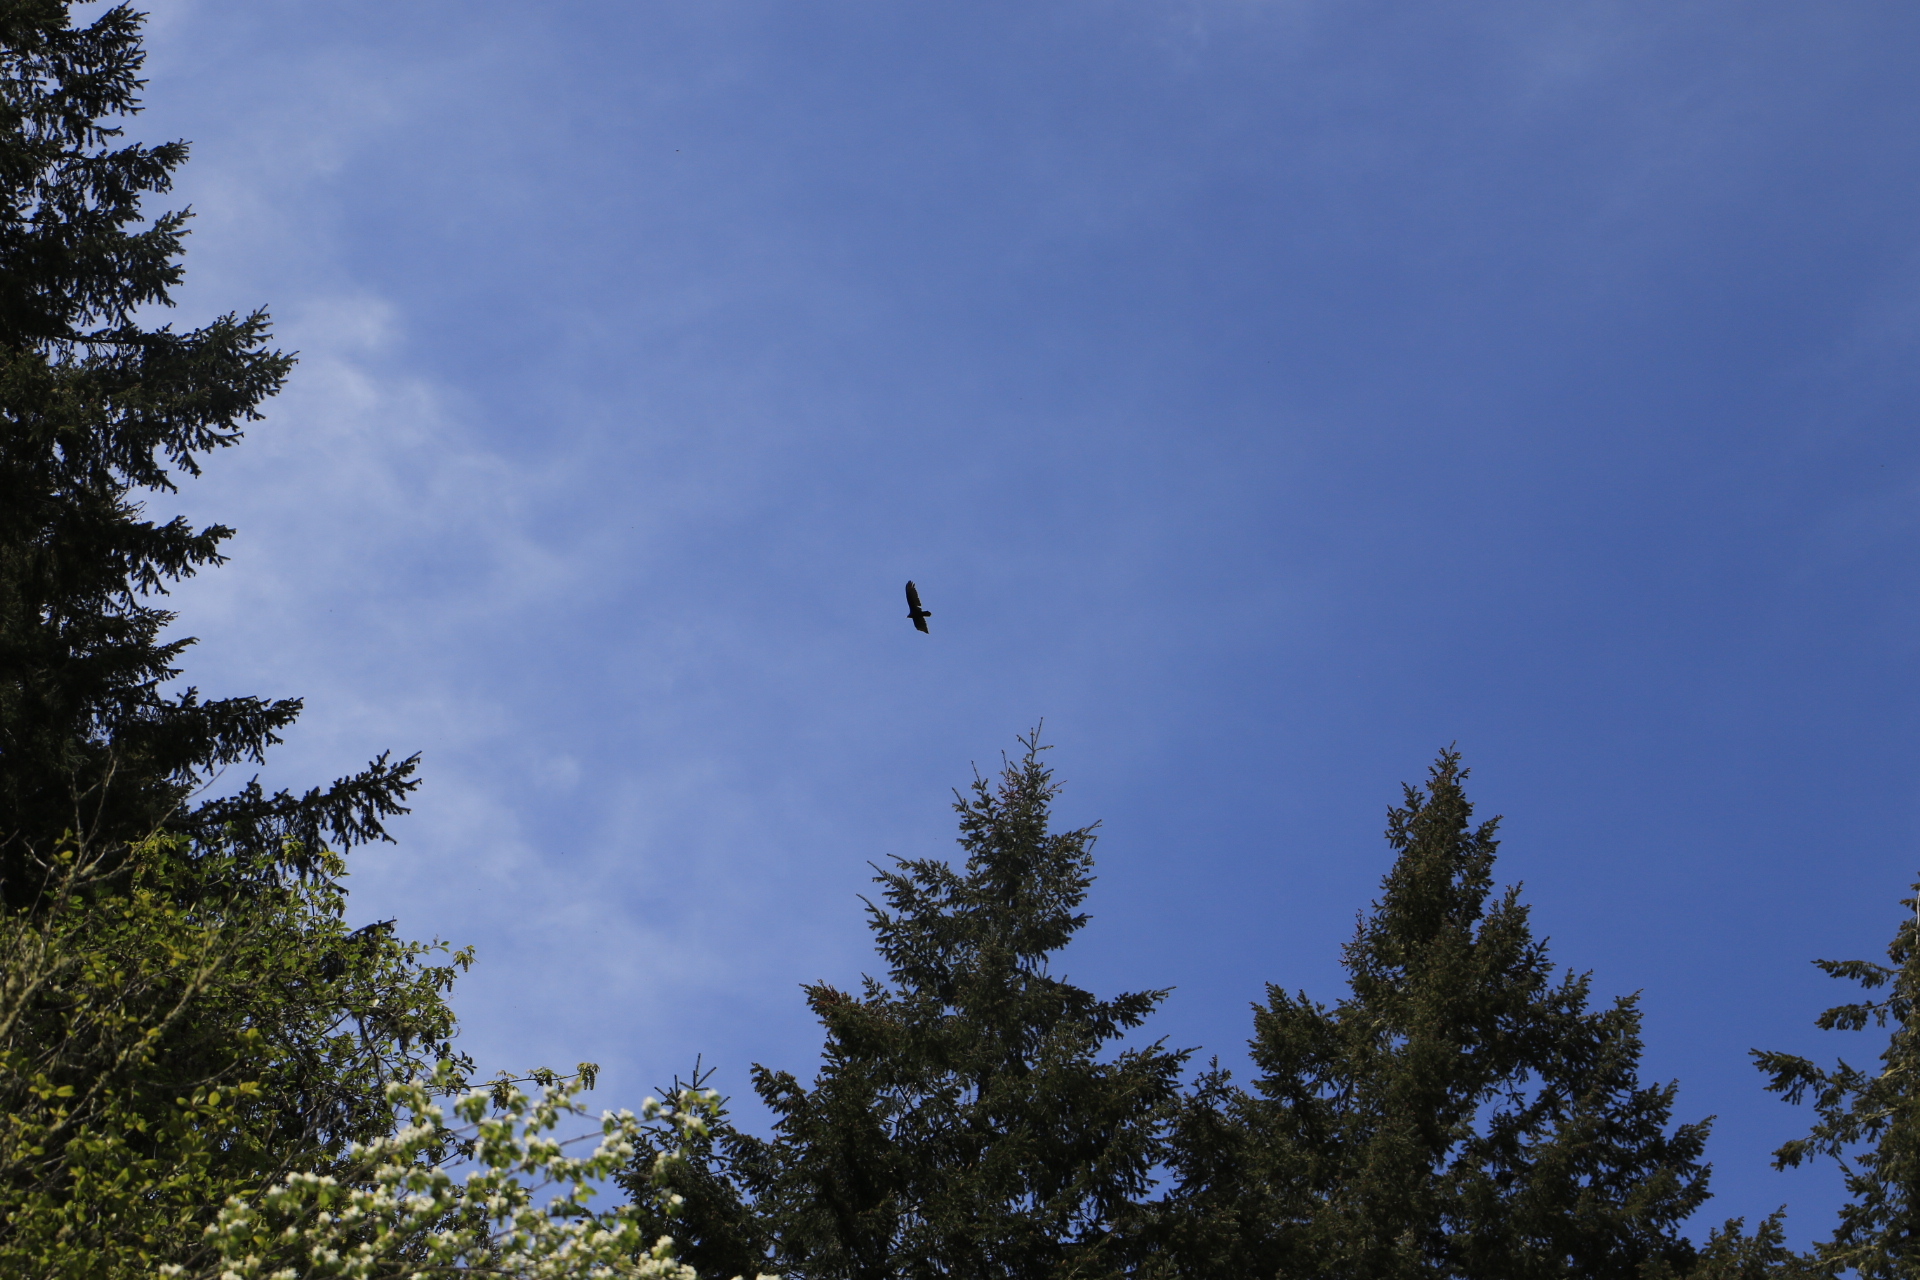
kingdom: Animalia
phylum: Chordata
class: Aves
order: Accipitriformes
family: Cathartidae
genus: Cathartes
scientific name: Cathartes aura
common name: Turkey vulture
